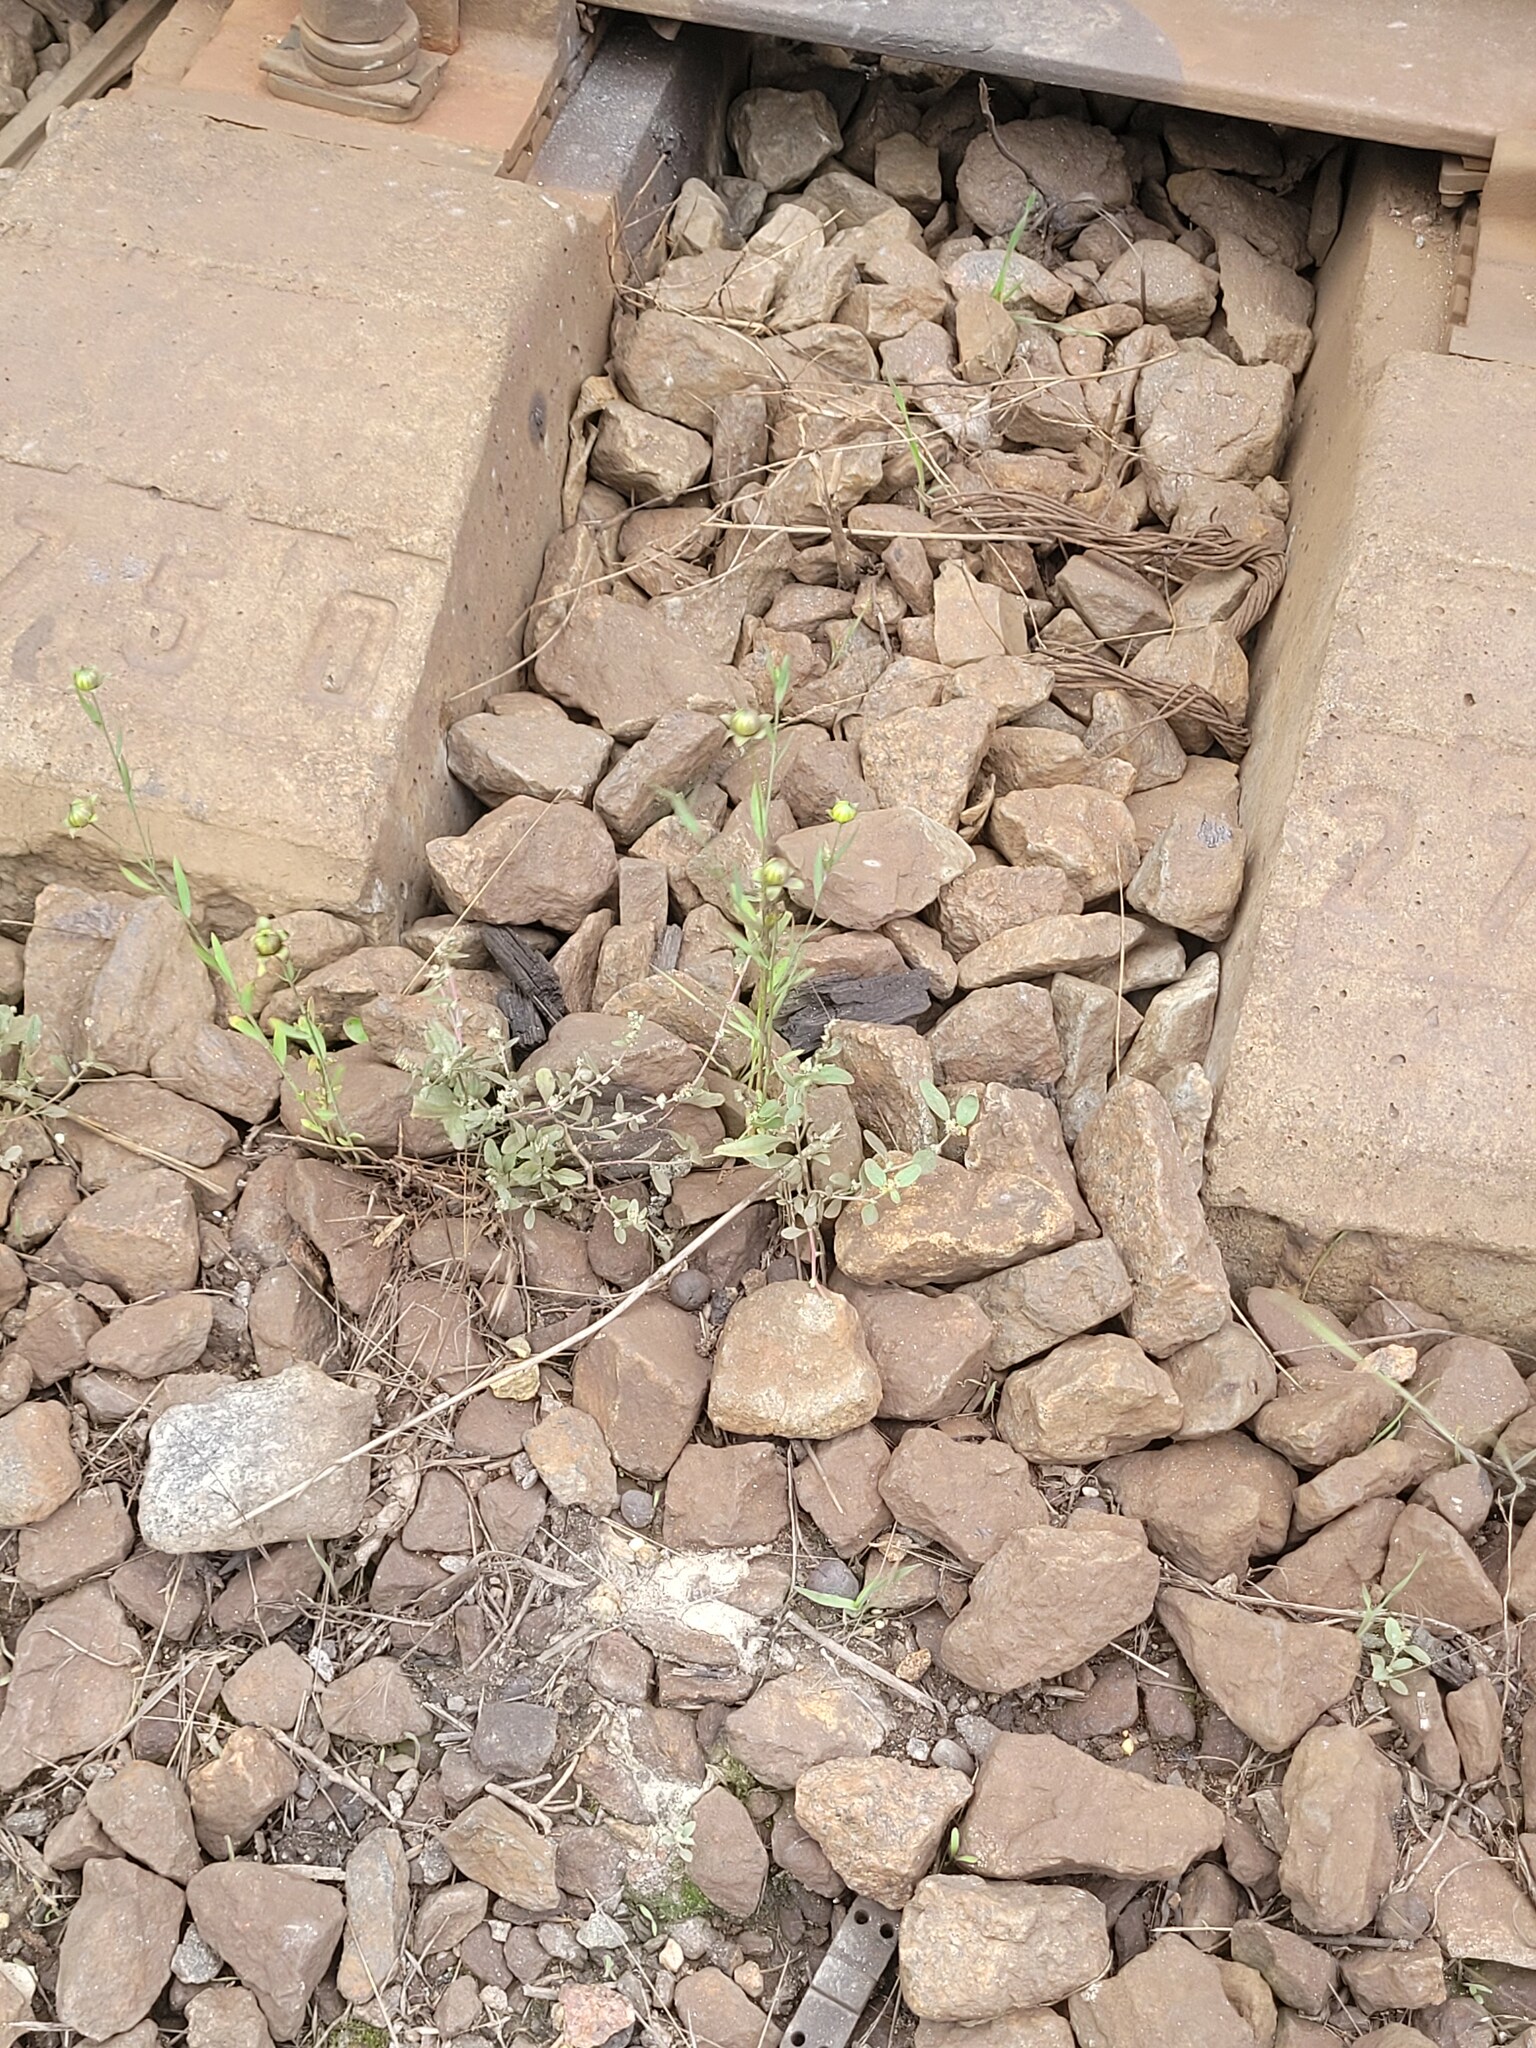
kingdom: Plantae
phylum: Tracheophyta
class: Magnoliopsida
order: Malpighiales
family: Linaceae
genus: Linum
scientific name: Linum usitatissimum
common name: Flax
